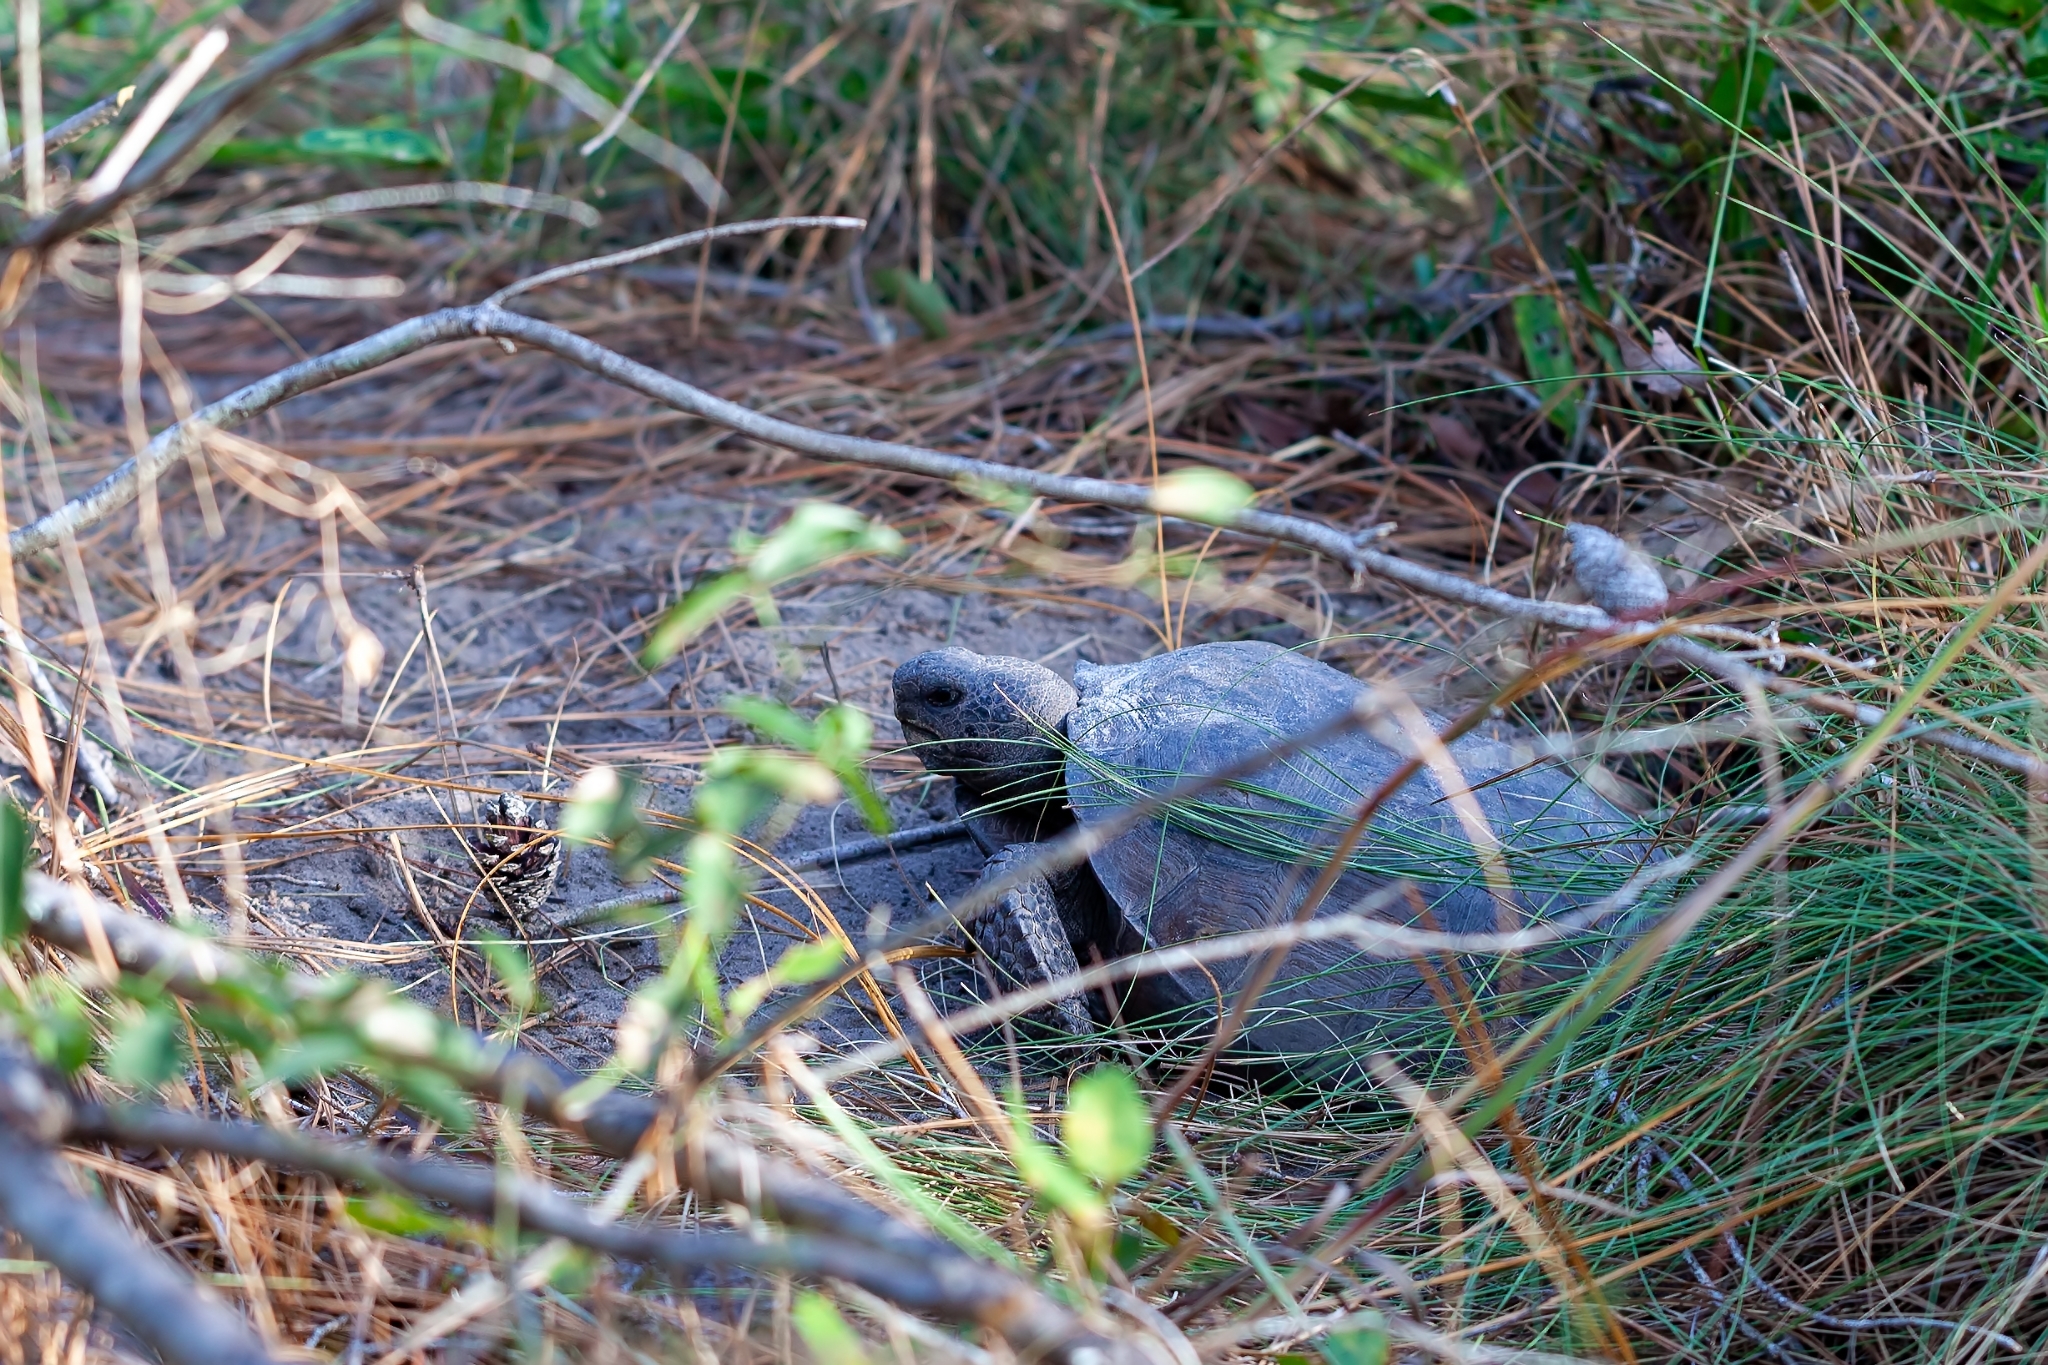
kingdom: Animalia
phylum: Chordata
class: Testudines
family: Testudinidae
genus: Gopherus
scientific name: Gopherus polyphemus
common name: Florida gopher tortoise
